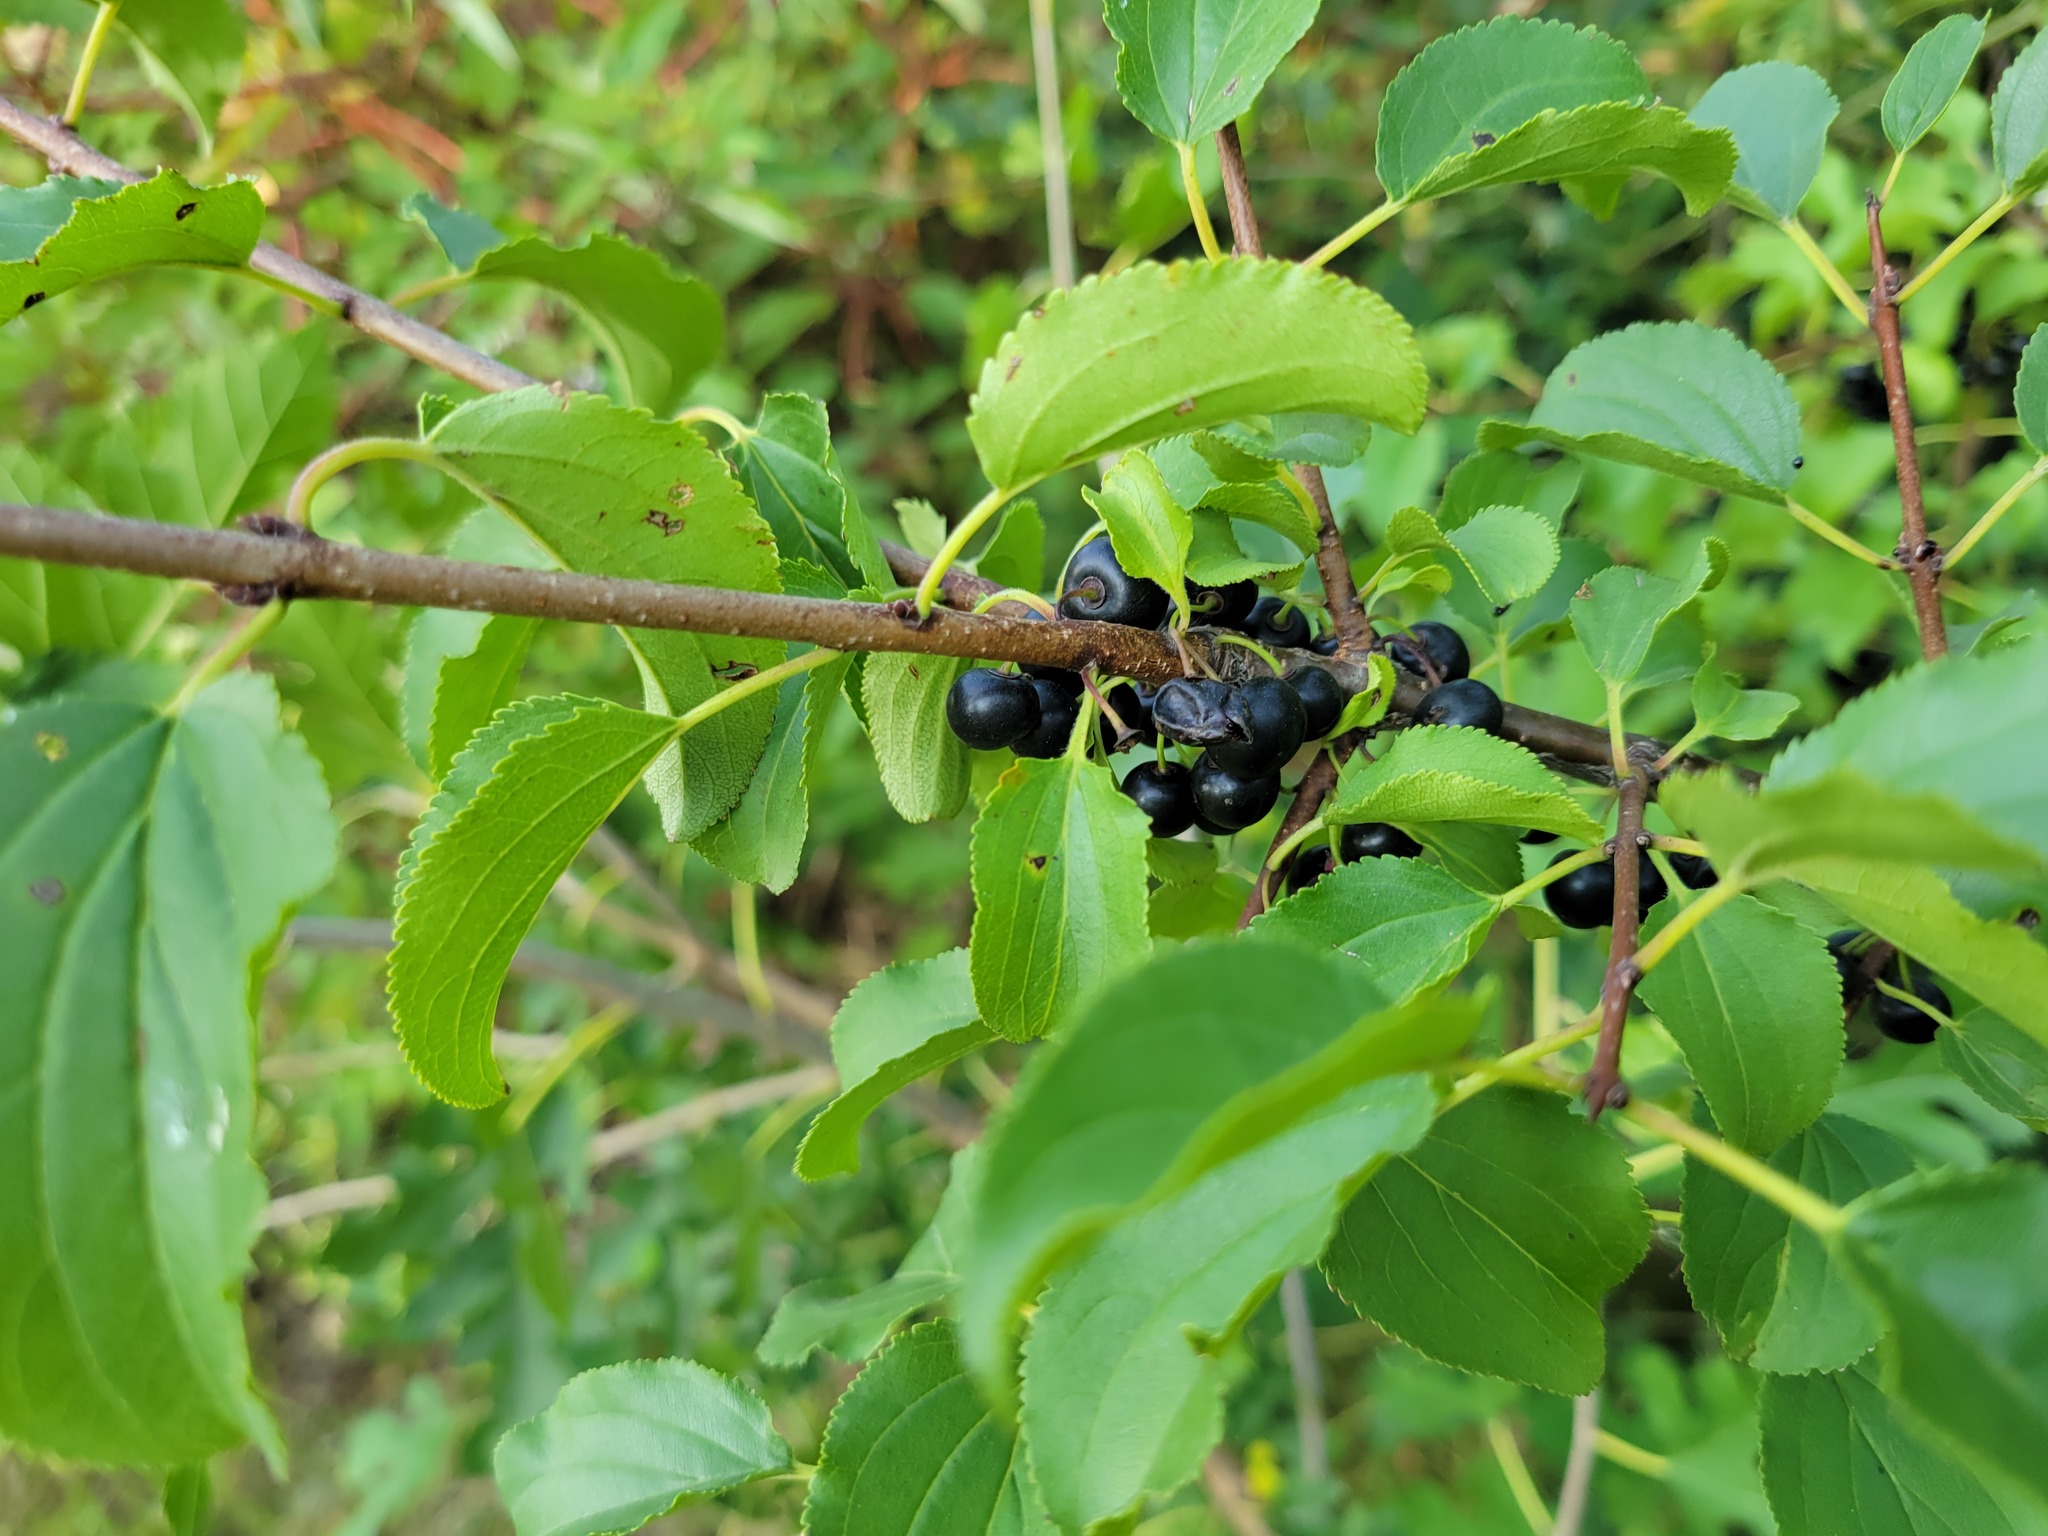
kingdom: Plantae
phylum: Tracheophyta
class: Magnoliopsida
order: Rosales
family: Rhamnaceae
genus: Rhamnus
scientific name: Rhamnus cathartica
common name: Common buckthorn
